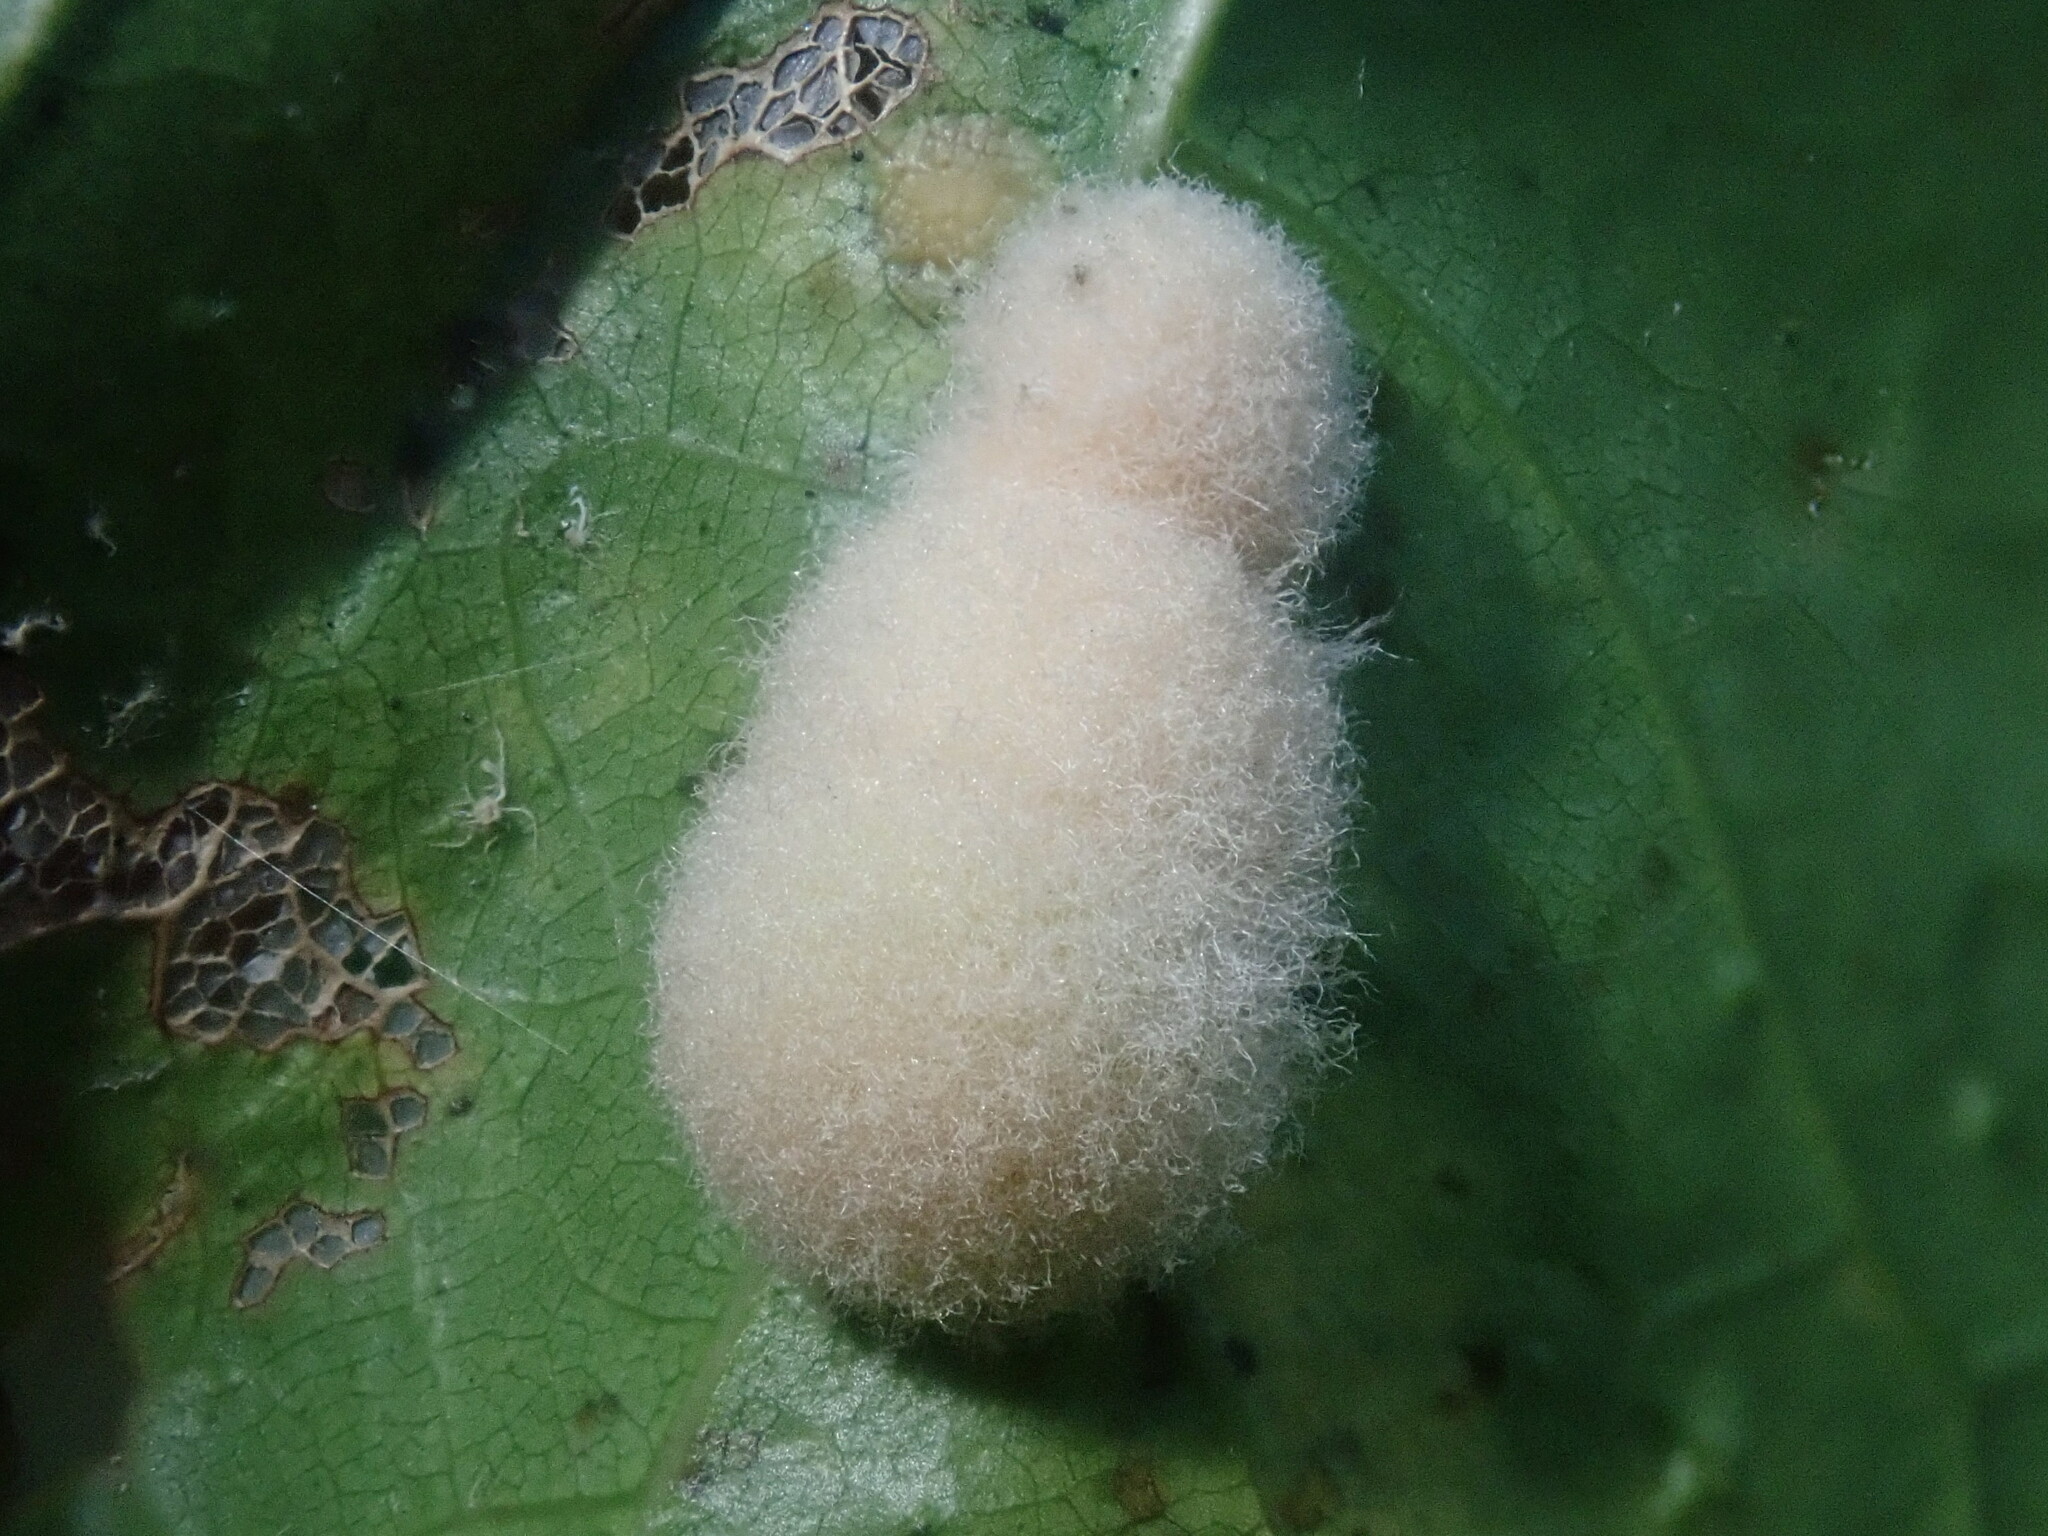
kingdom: Animalia
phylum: Arthropoda
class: Insecta
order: Hymenoptera
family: Cynipidae
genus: Callirhytis
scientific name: Callirhytis
